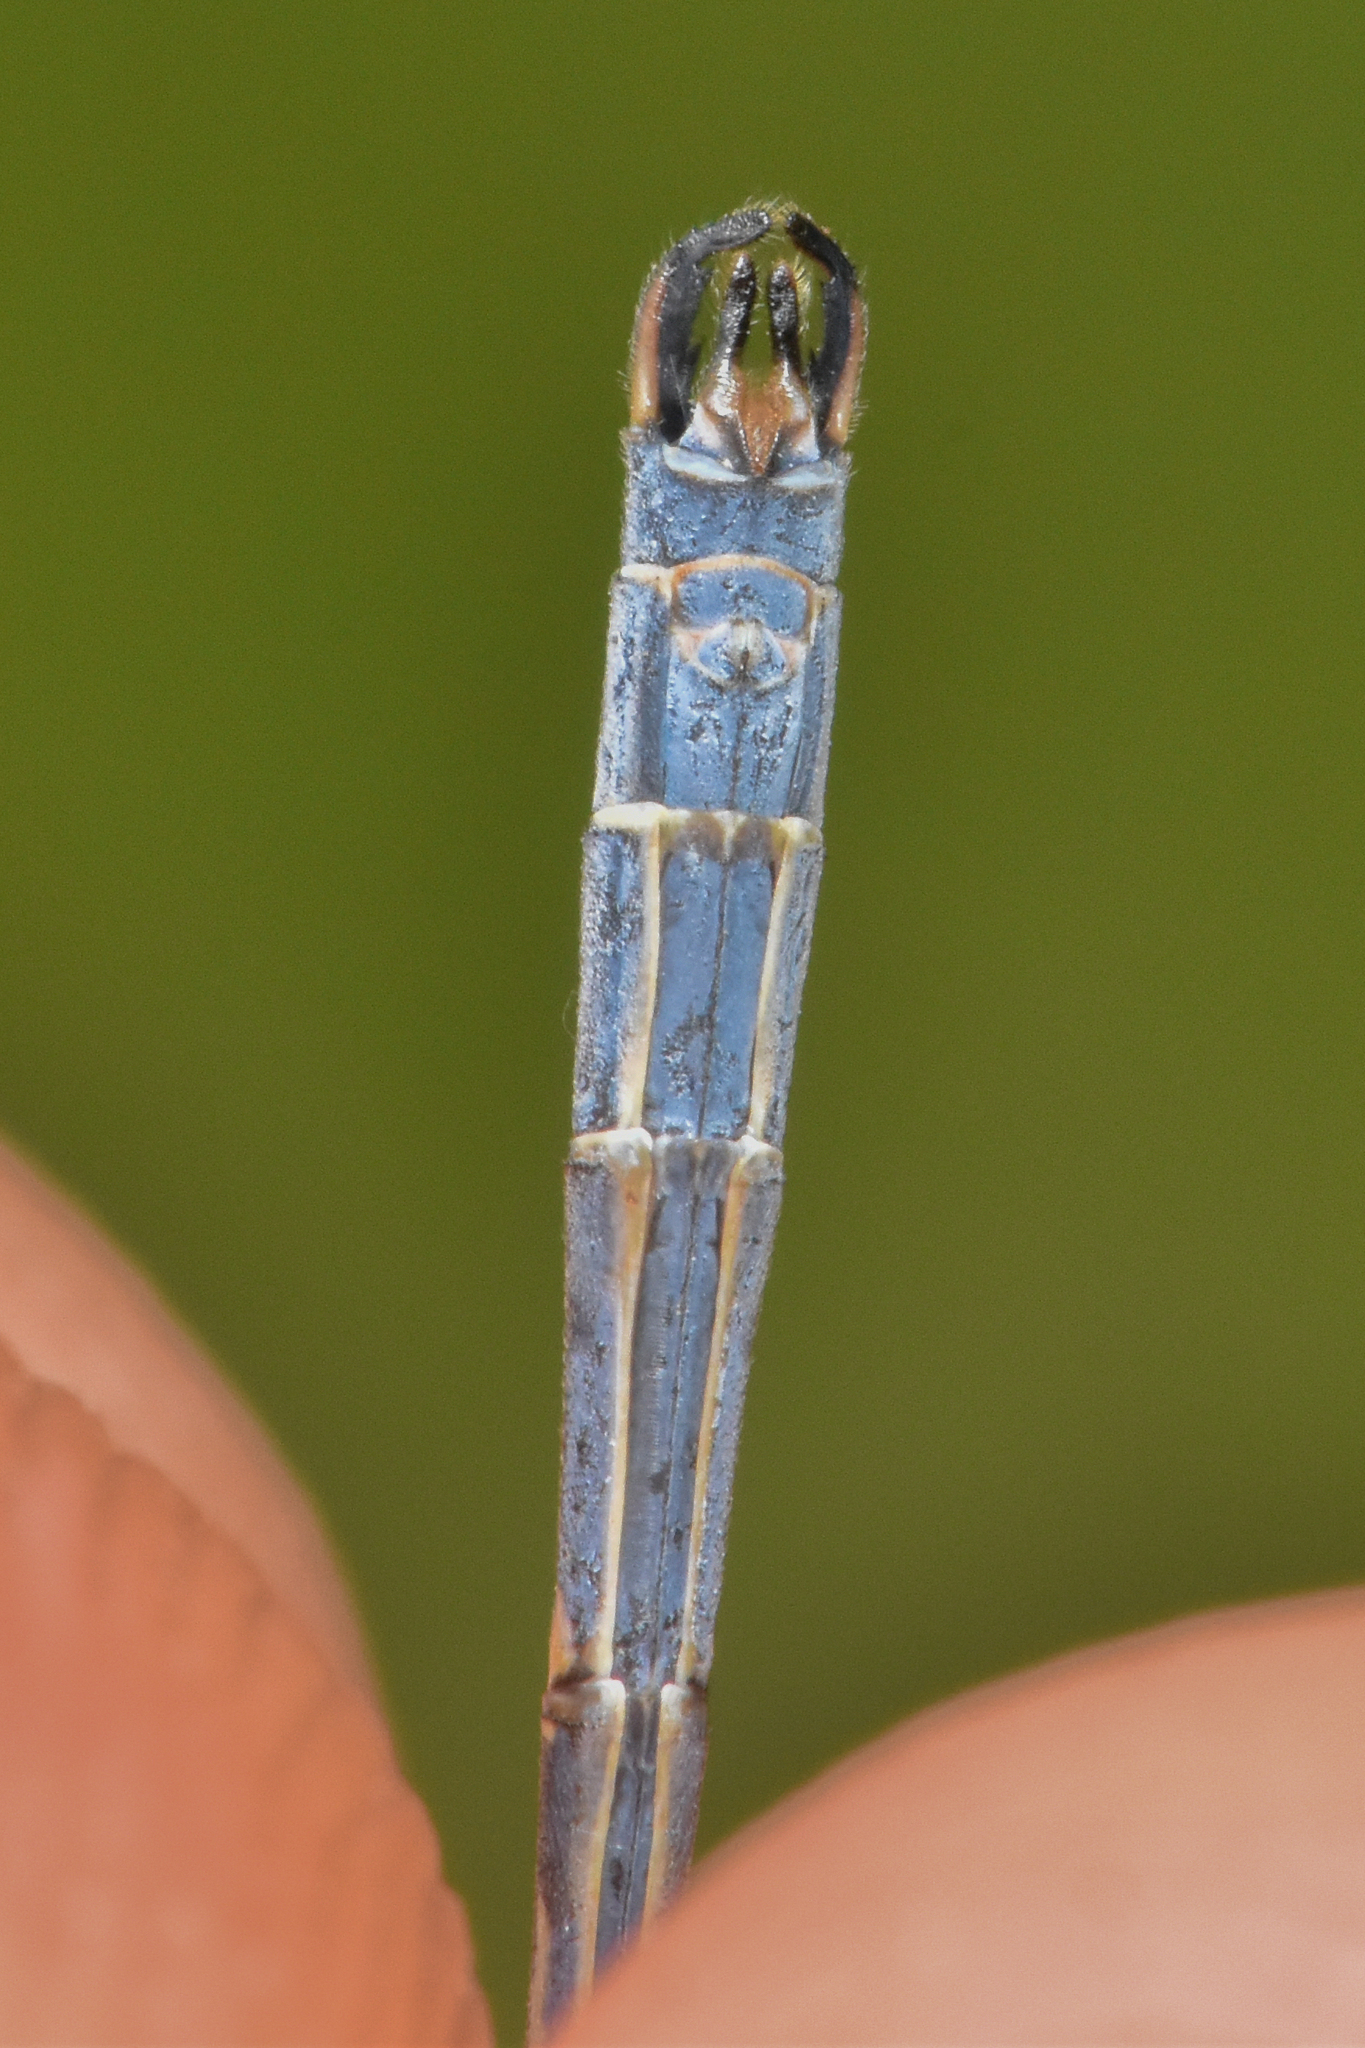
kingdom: Animalia
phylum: Arthropoda
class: Insecta
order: Odonata
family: Lestidae
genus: Lestes
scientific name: Lestes disjunctus
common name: Northern spreadwing
